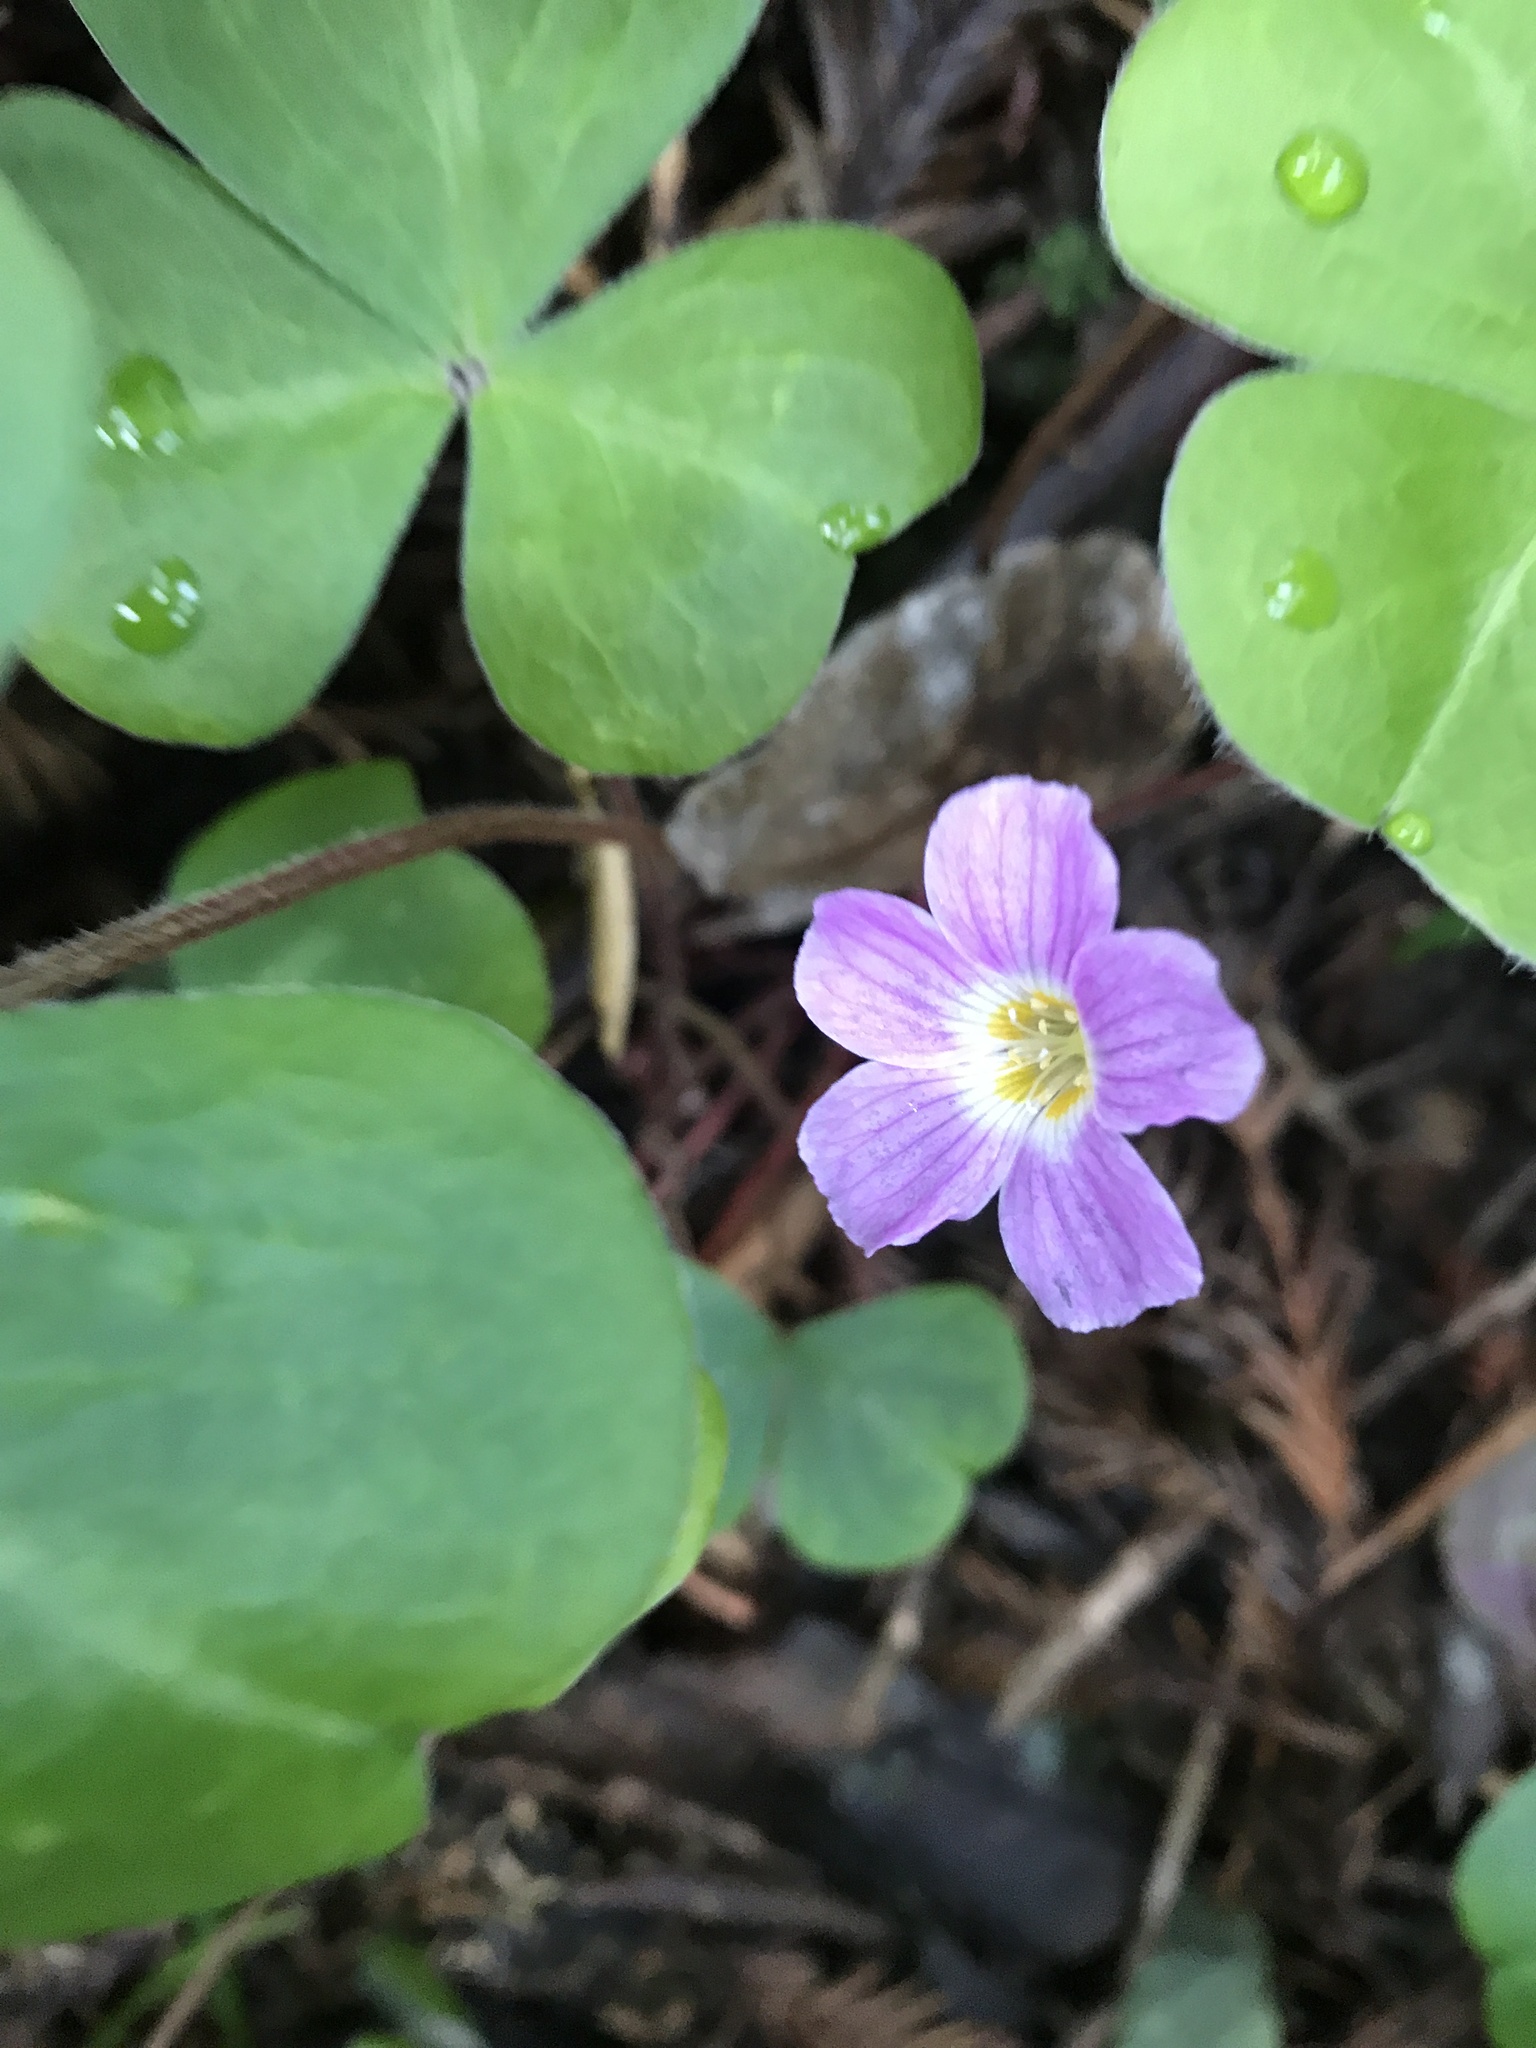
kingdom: Plantae
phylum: Tracheophyta
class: Magnoliopsida
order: Oxalidales
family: Oxalidaceae
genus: Oxalis
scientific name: Oxalis oregana
